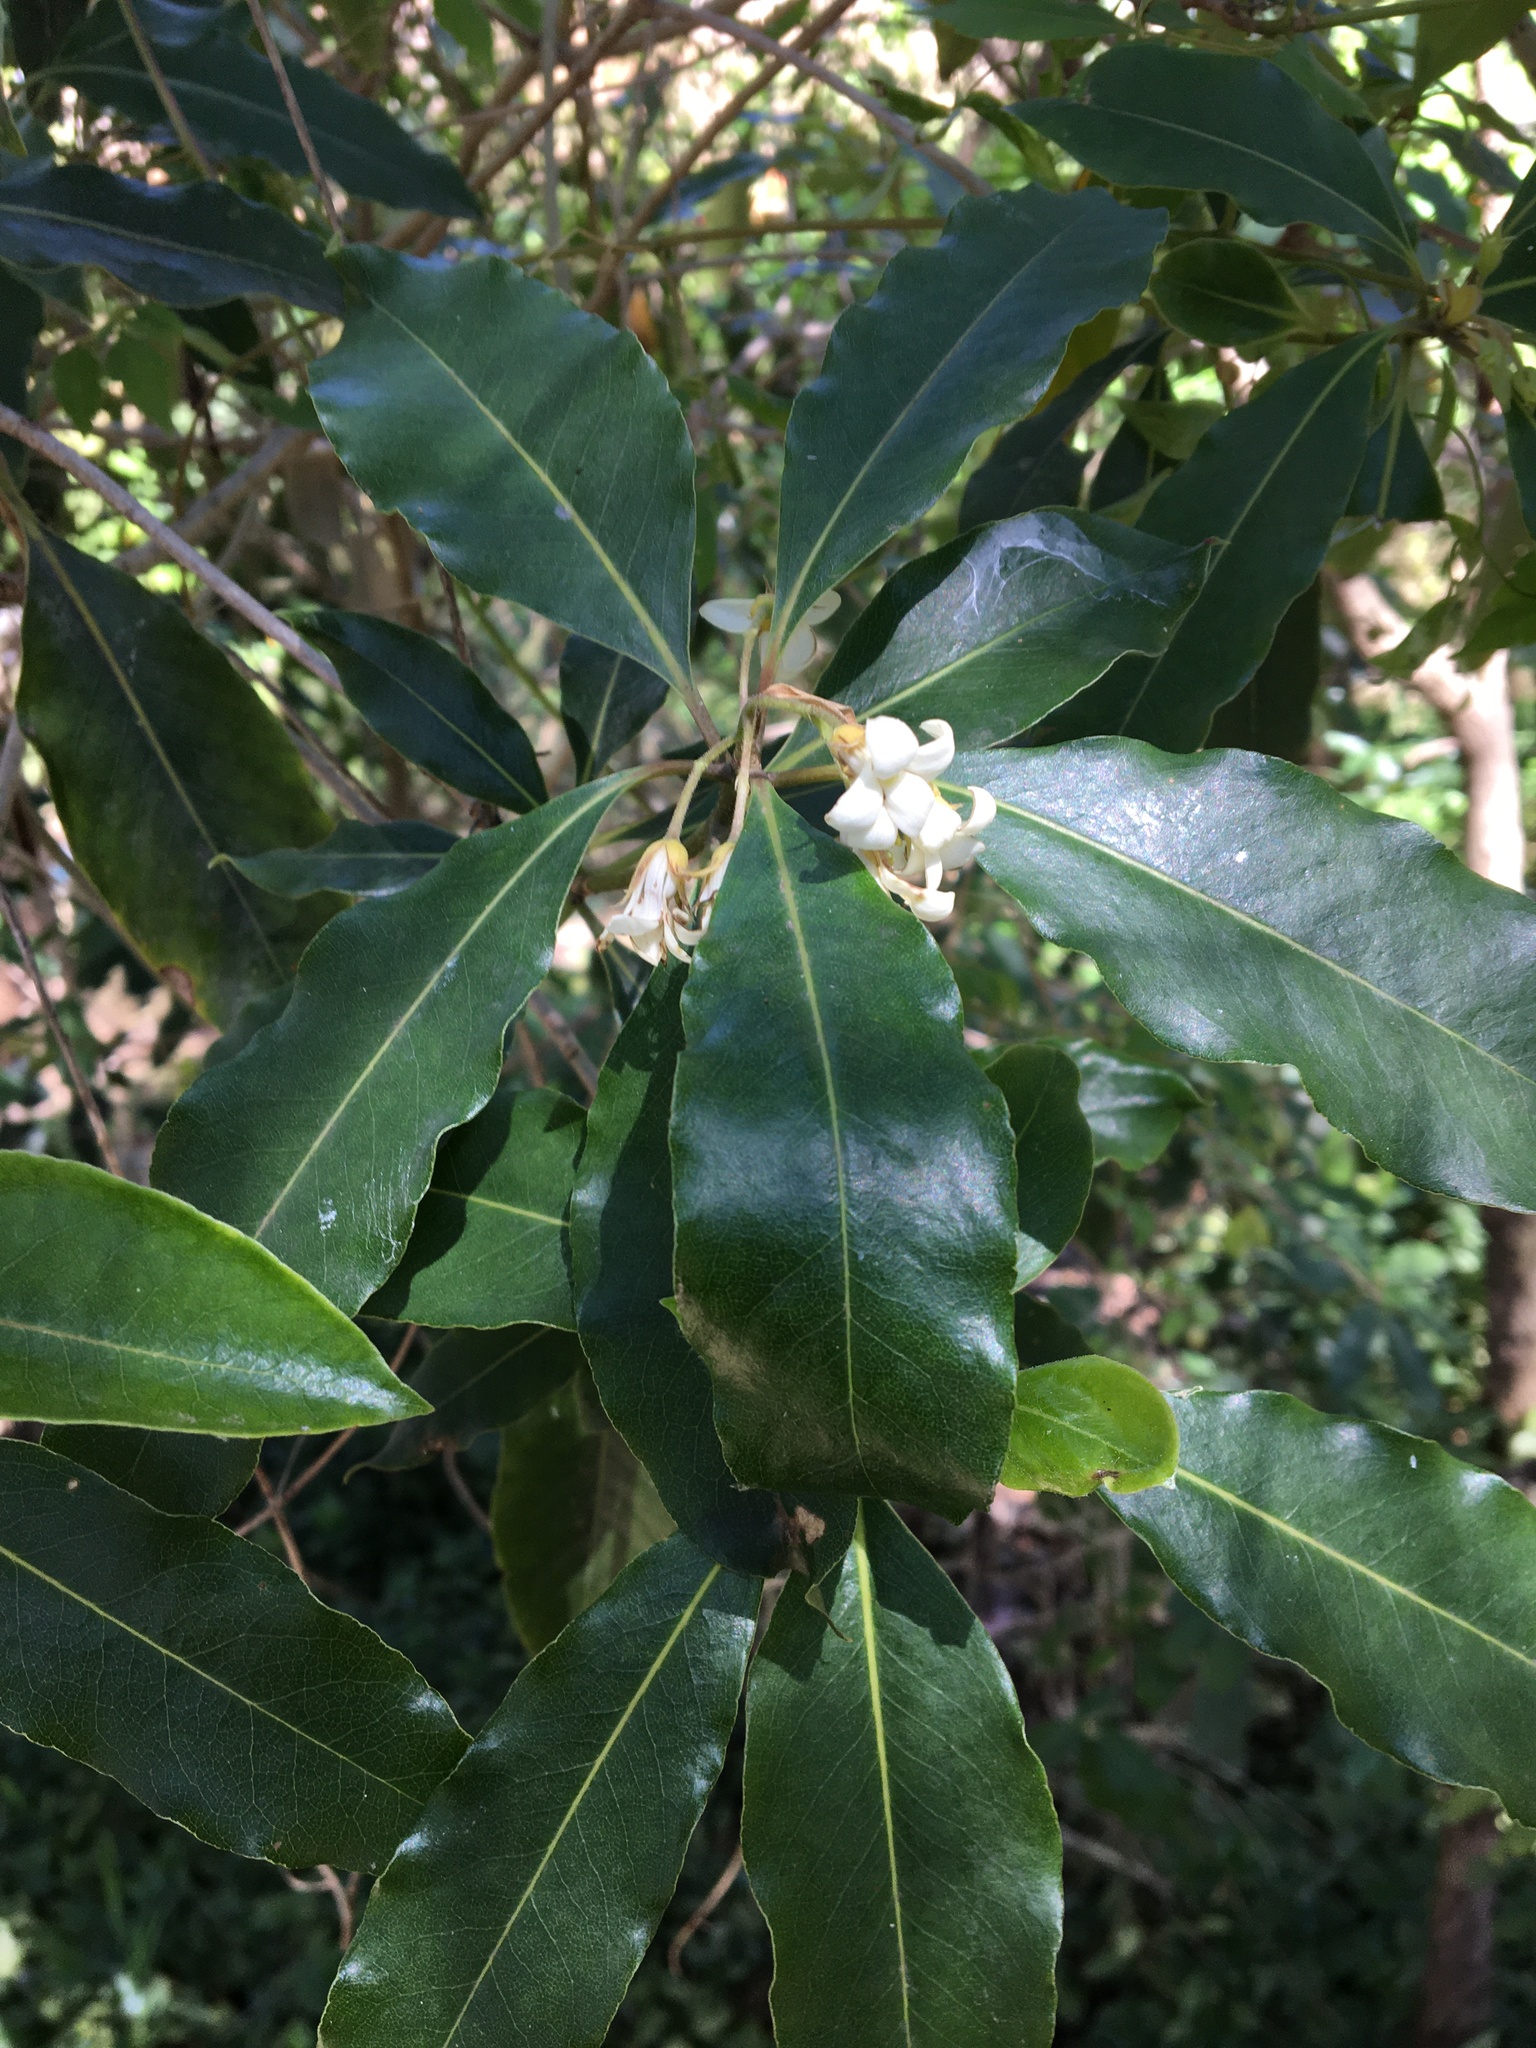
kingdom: Plantae
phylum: Tracheophyta
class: Magnoliopsida
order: Apiales
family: Pittosporaceae
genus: Pittosporum
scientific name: Pittosporum undulatum
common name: Australian cheesewood
